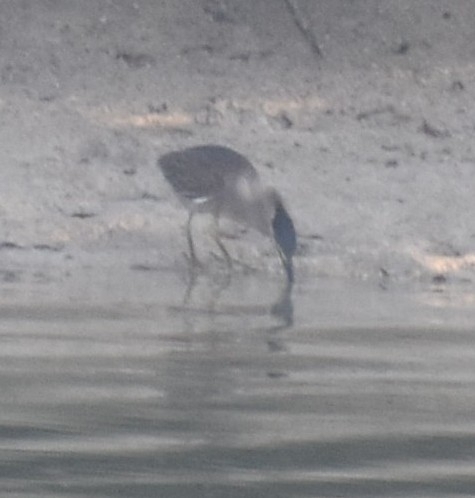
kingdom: Animalia
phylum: Chordata
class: Aves
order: Pelecaniformes
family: Ardeidae
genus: Butorides
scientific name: Butorides striata
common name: Striated heron
